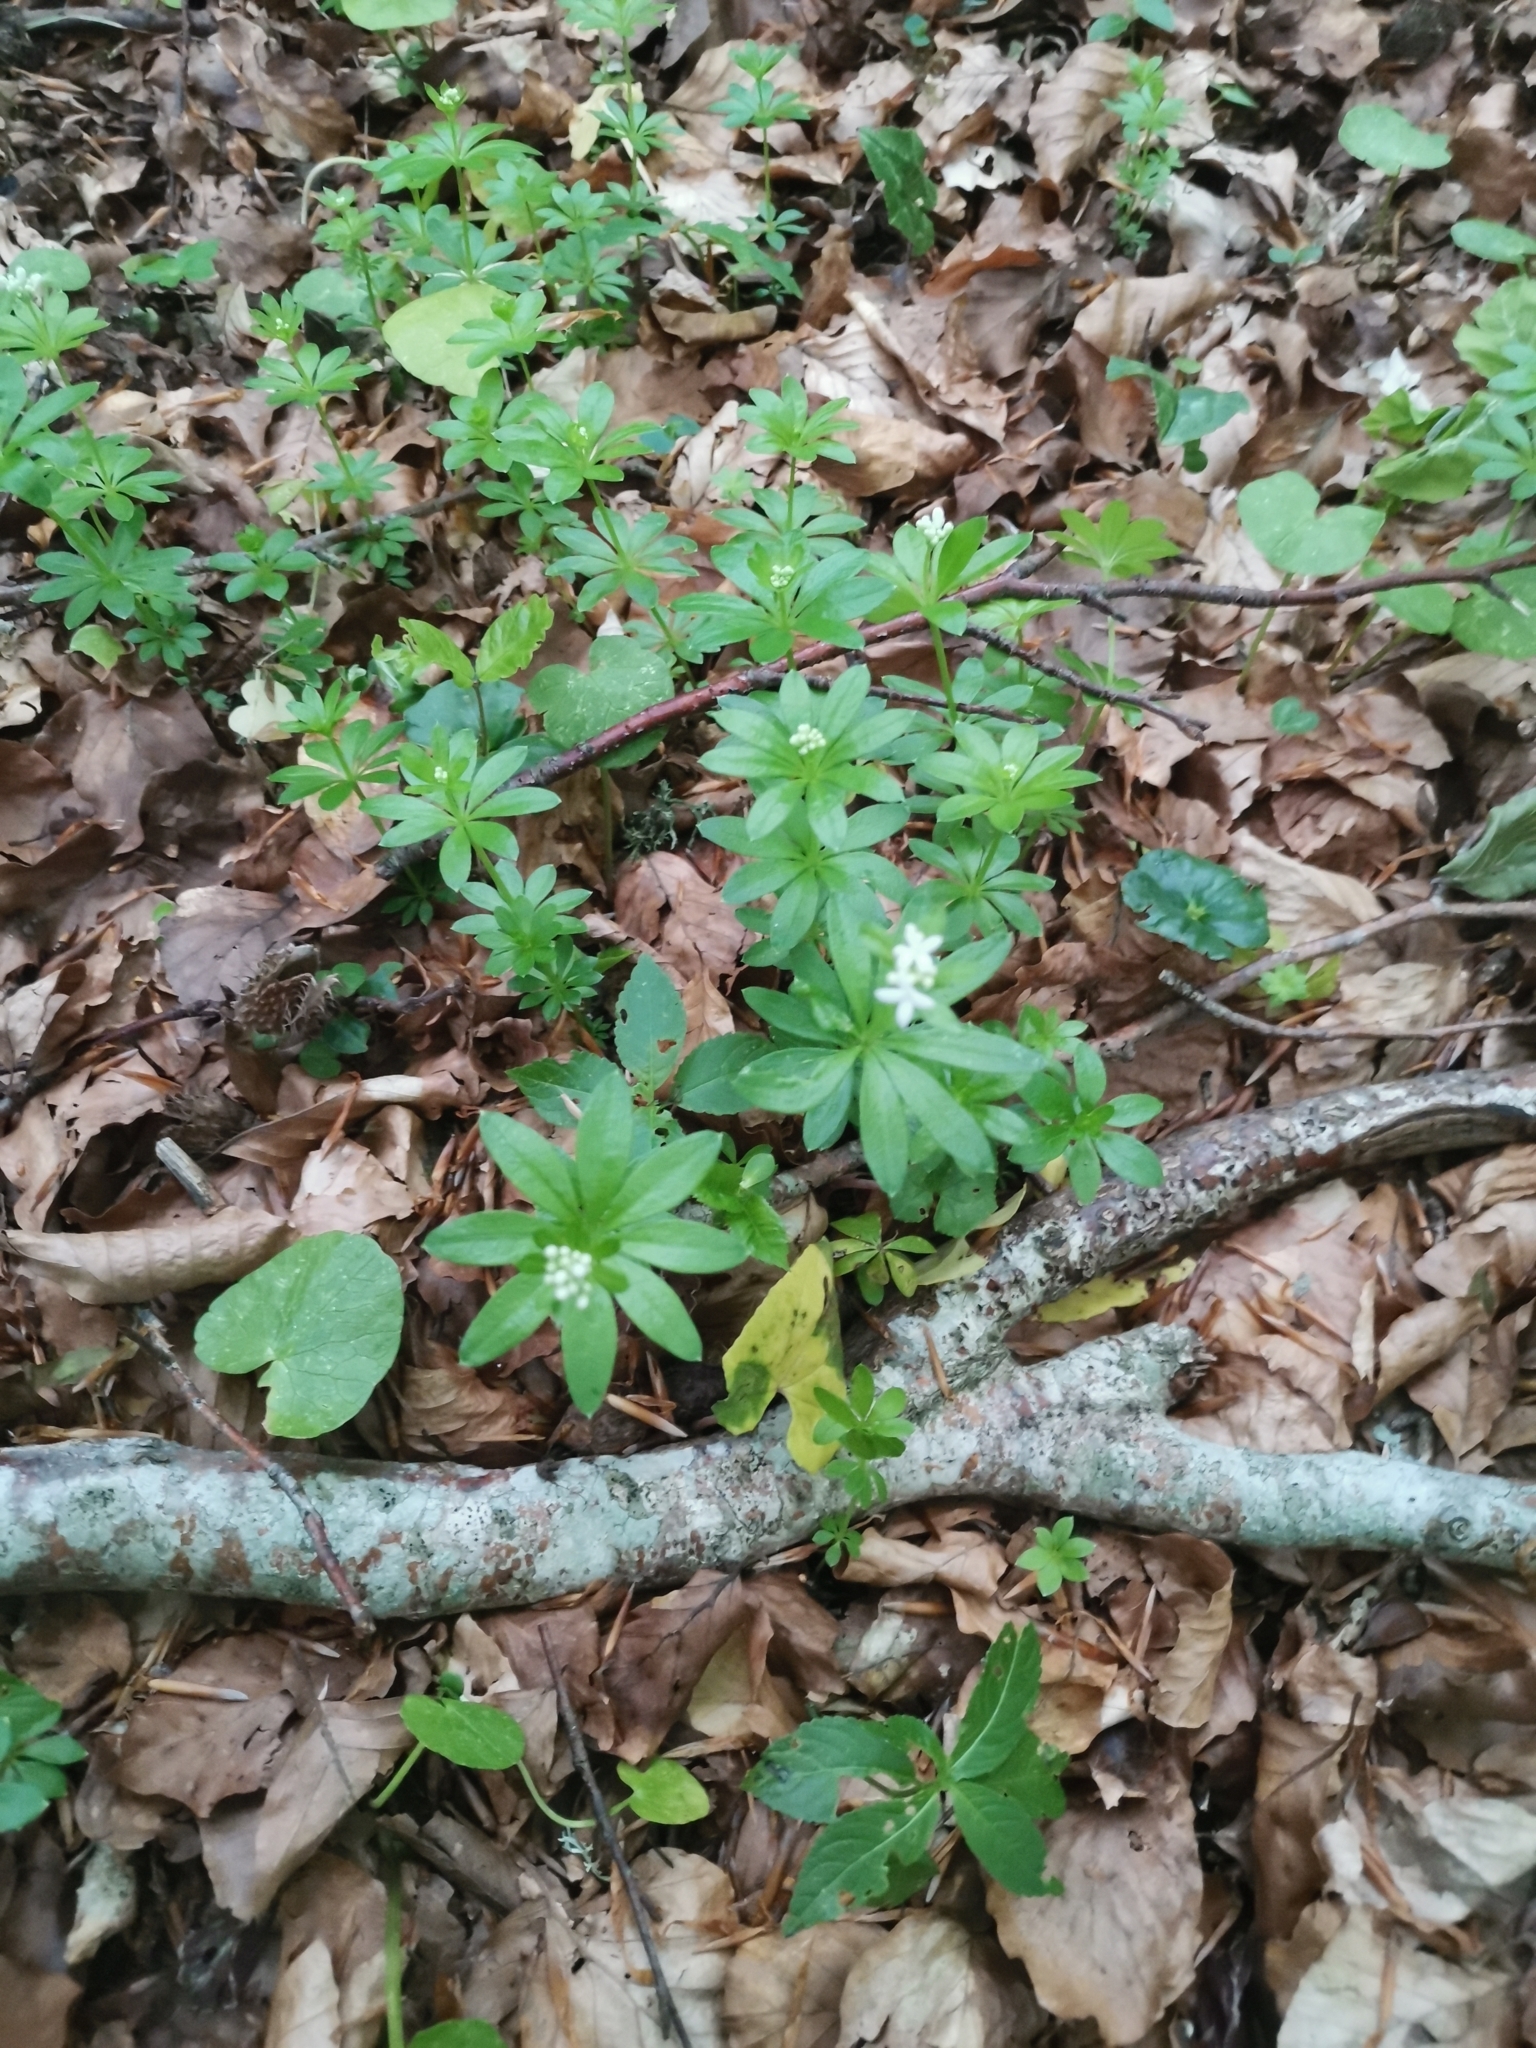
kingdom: Plantae
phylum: Tracheophyta
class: Magnoliopsida
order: Gentianales
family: Rubiaceae
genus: Galium
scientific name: Galium odoratum
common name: Sweet woodruff
